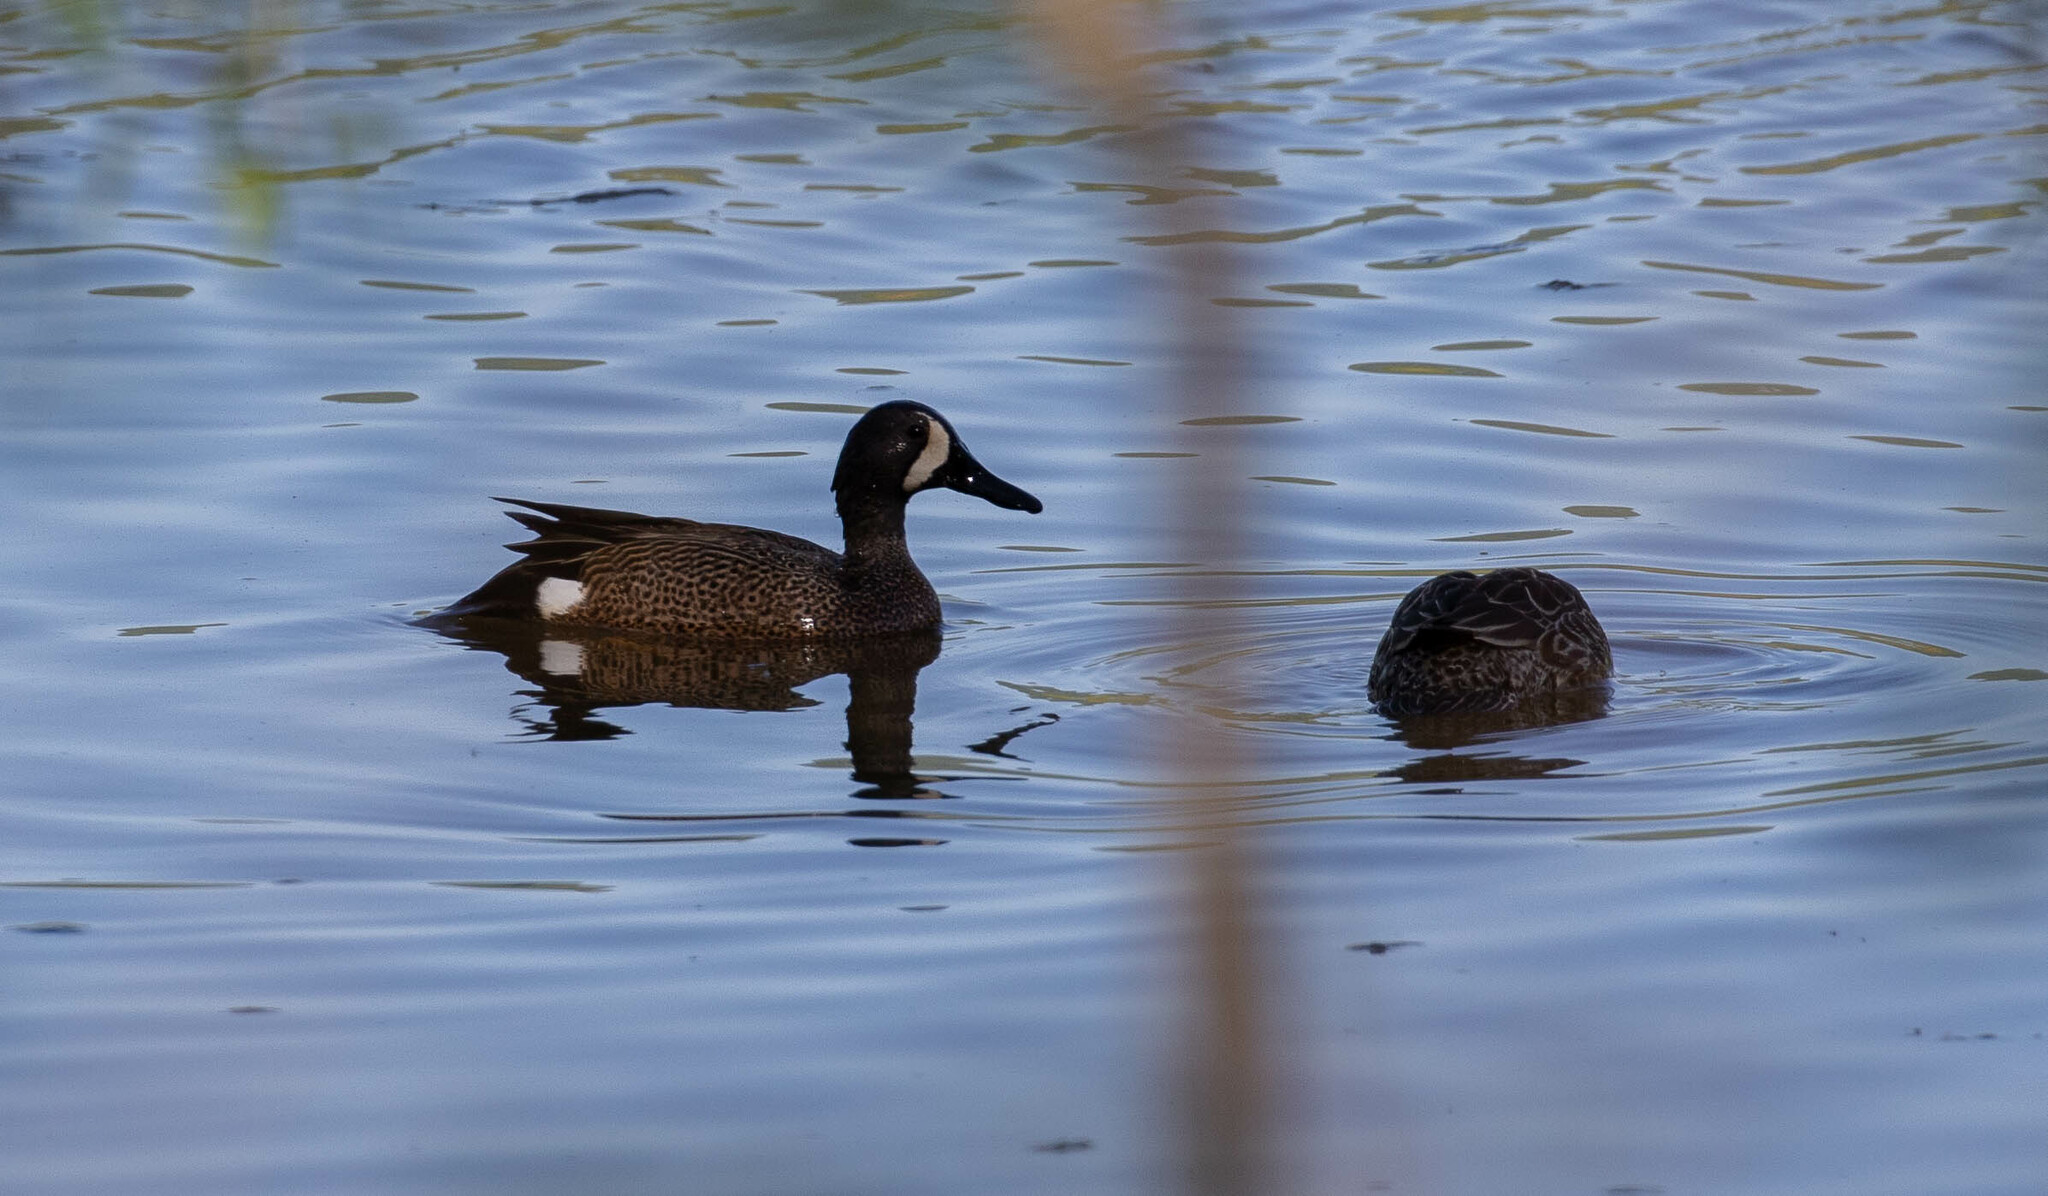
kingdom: Animalia
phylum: Chordata
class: Aves
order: Anseriformes
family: Anatidae
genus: Spatula
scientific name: Spatula discors
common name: Blue-winged teal
